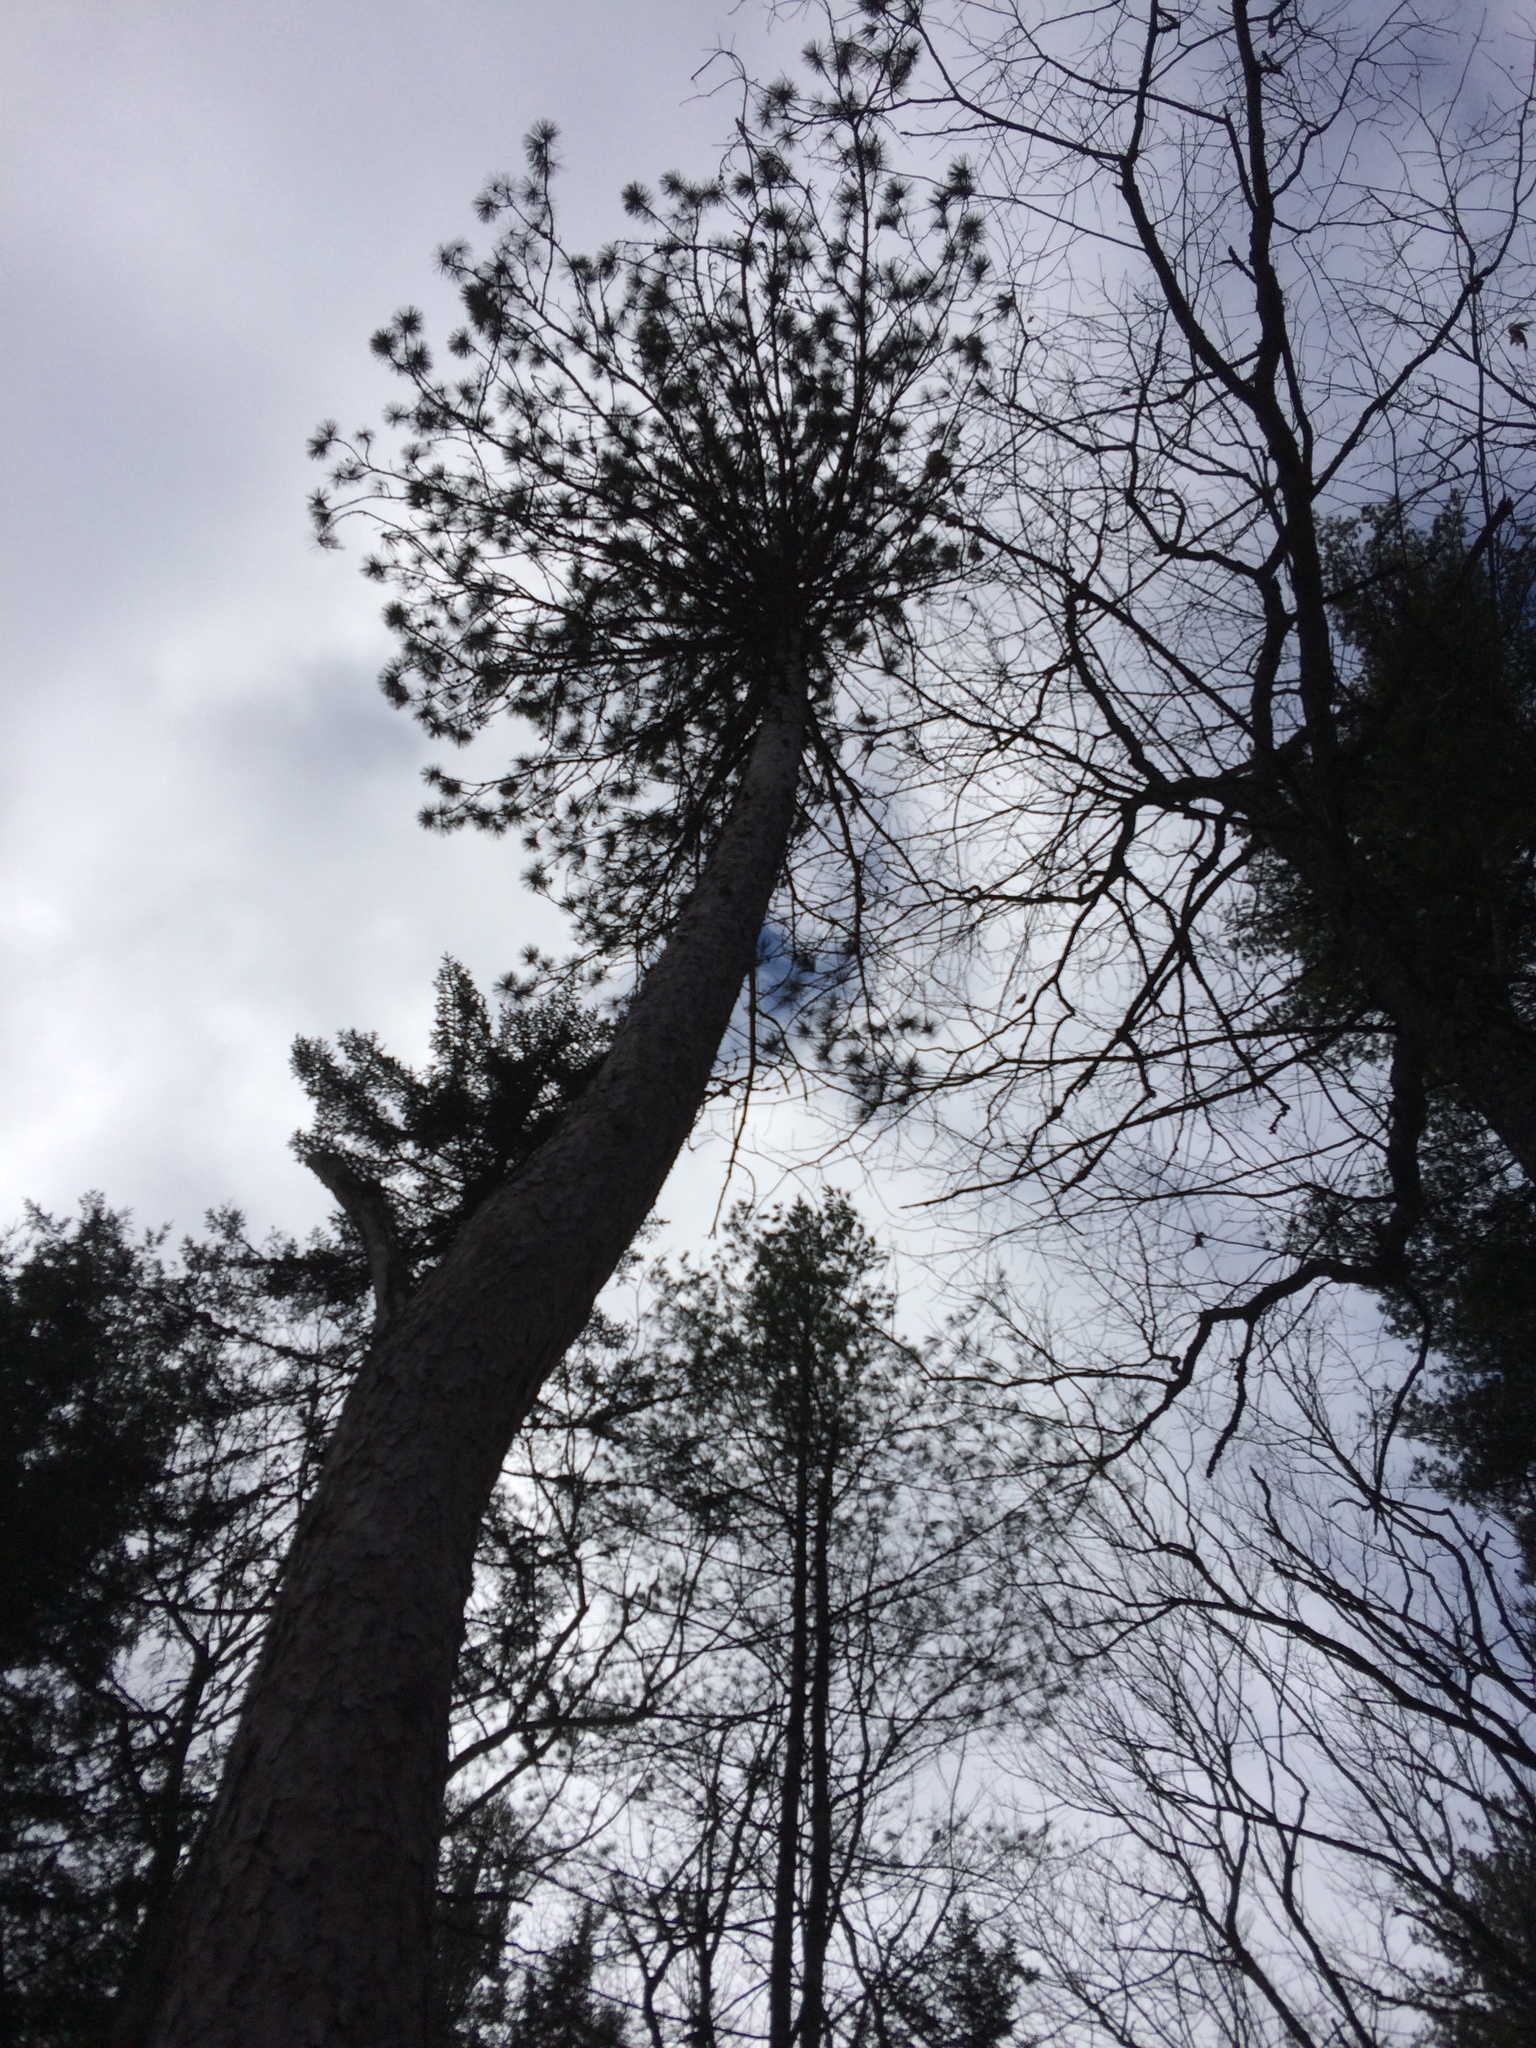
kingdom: Plantae
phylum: Tracheophyta
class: Pinopsida
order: Pinales
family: Pinaceae
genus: Pinus
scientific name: Pinus resinosa
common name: Norway pine
